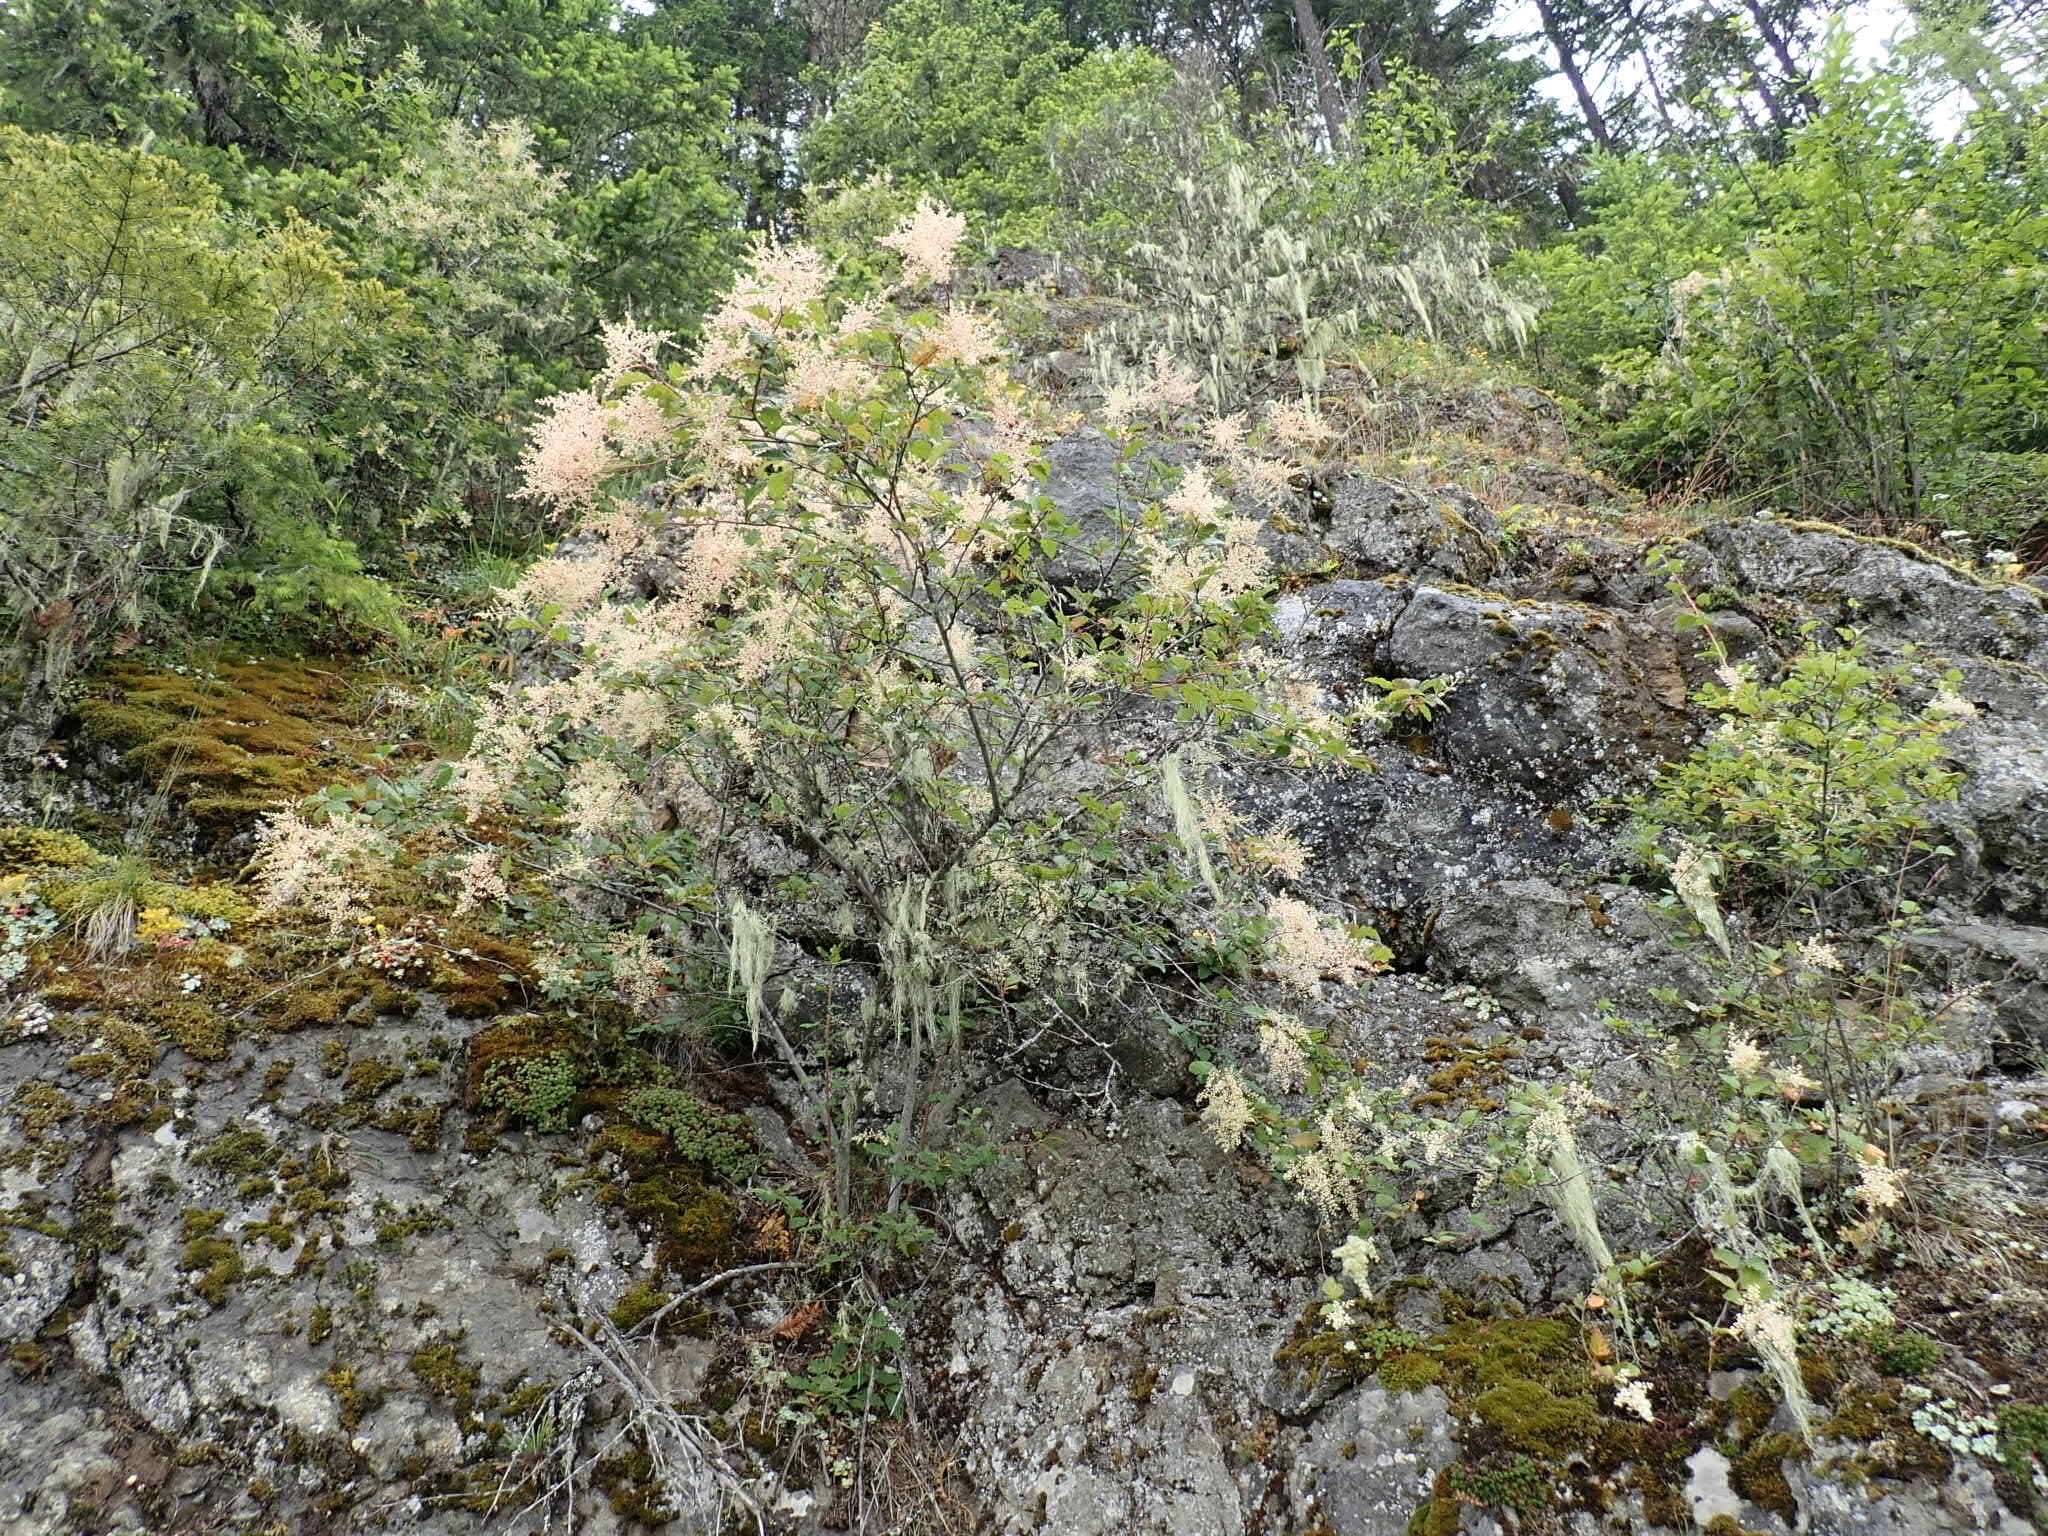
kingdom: Plantae
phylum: Tracheophyta
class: Magnoliopsida
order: Rosales
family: Rosaceae
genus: Holodiscus
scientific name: Holodiscus discolor
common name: Oceanspray
